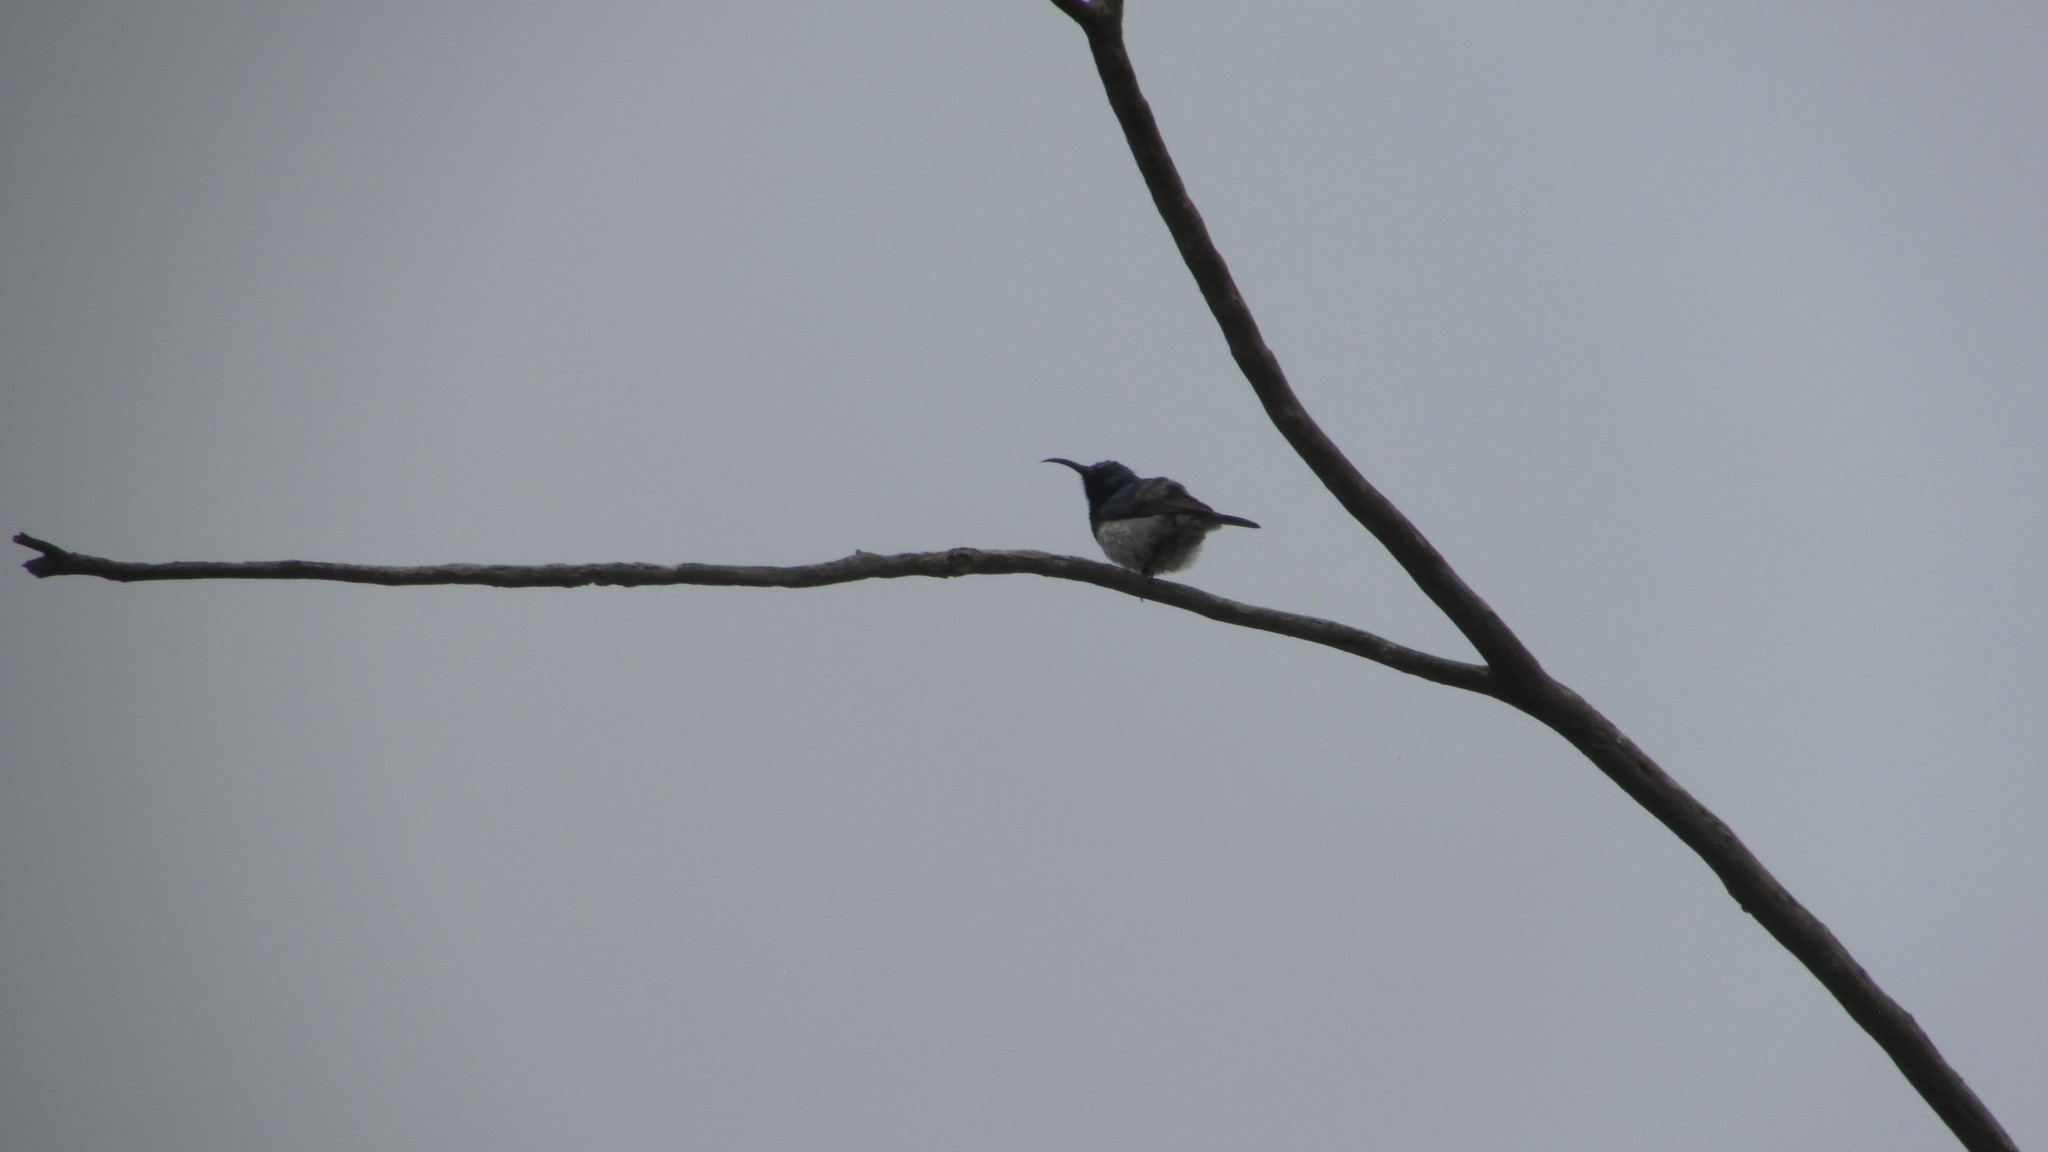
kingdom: Animalia
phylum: Chordata
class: Aves
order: Passeriformes
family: Nectariniidae
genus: Cinnyris
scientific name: Cinnyris talatala
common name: White-bellied sunbird
